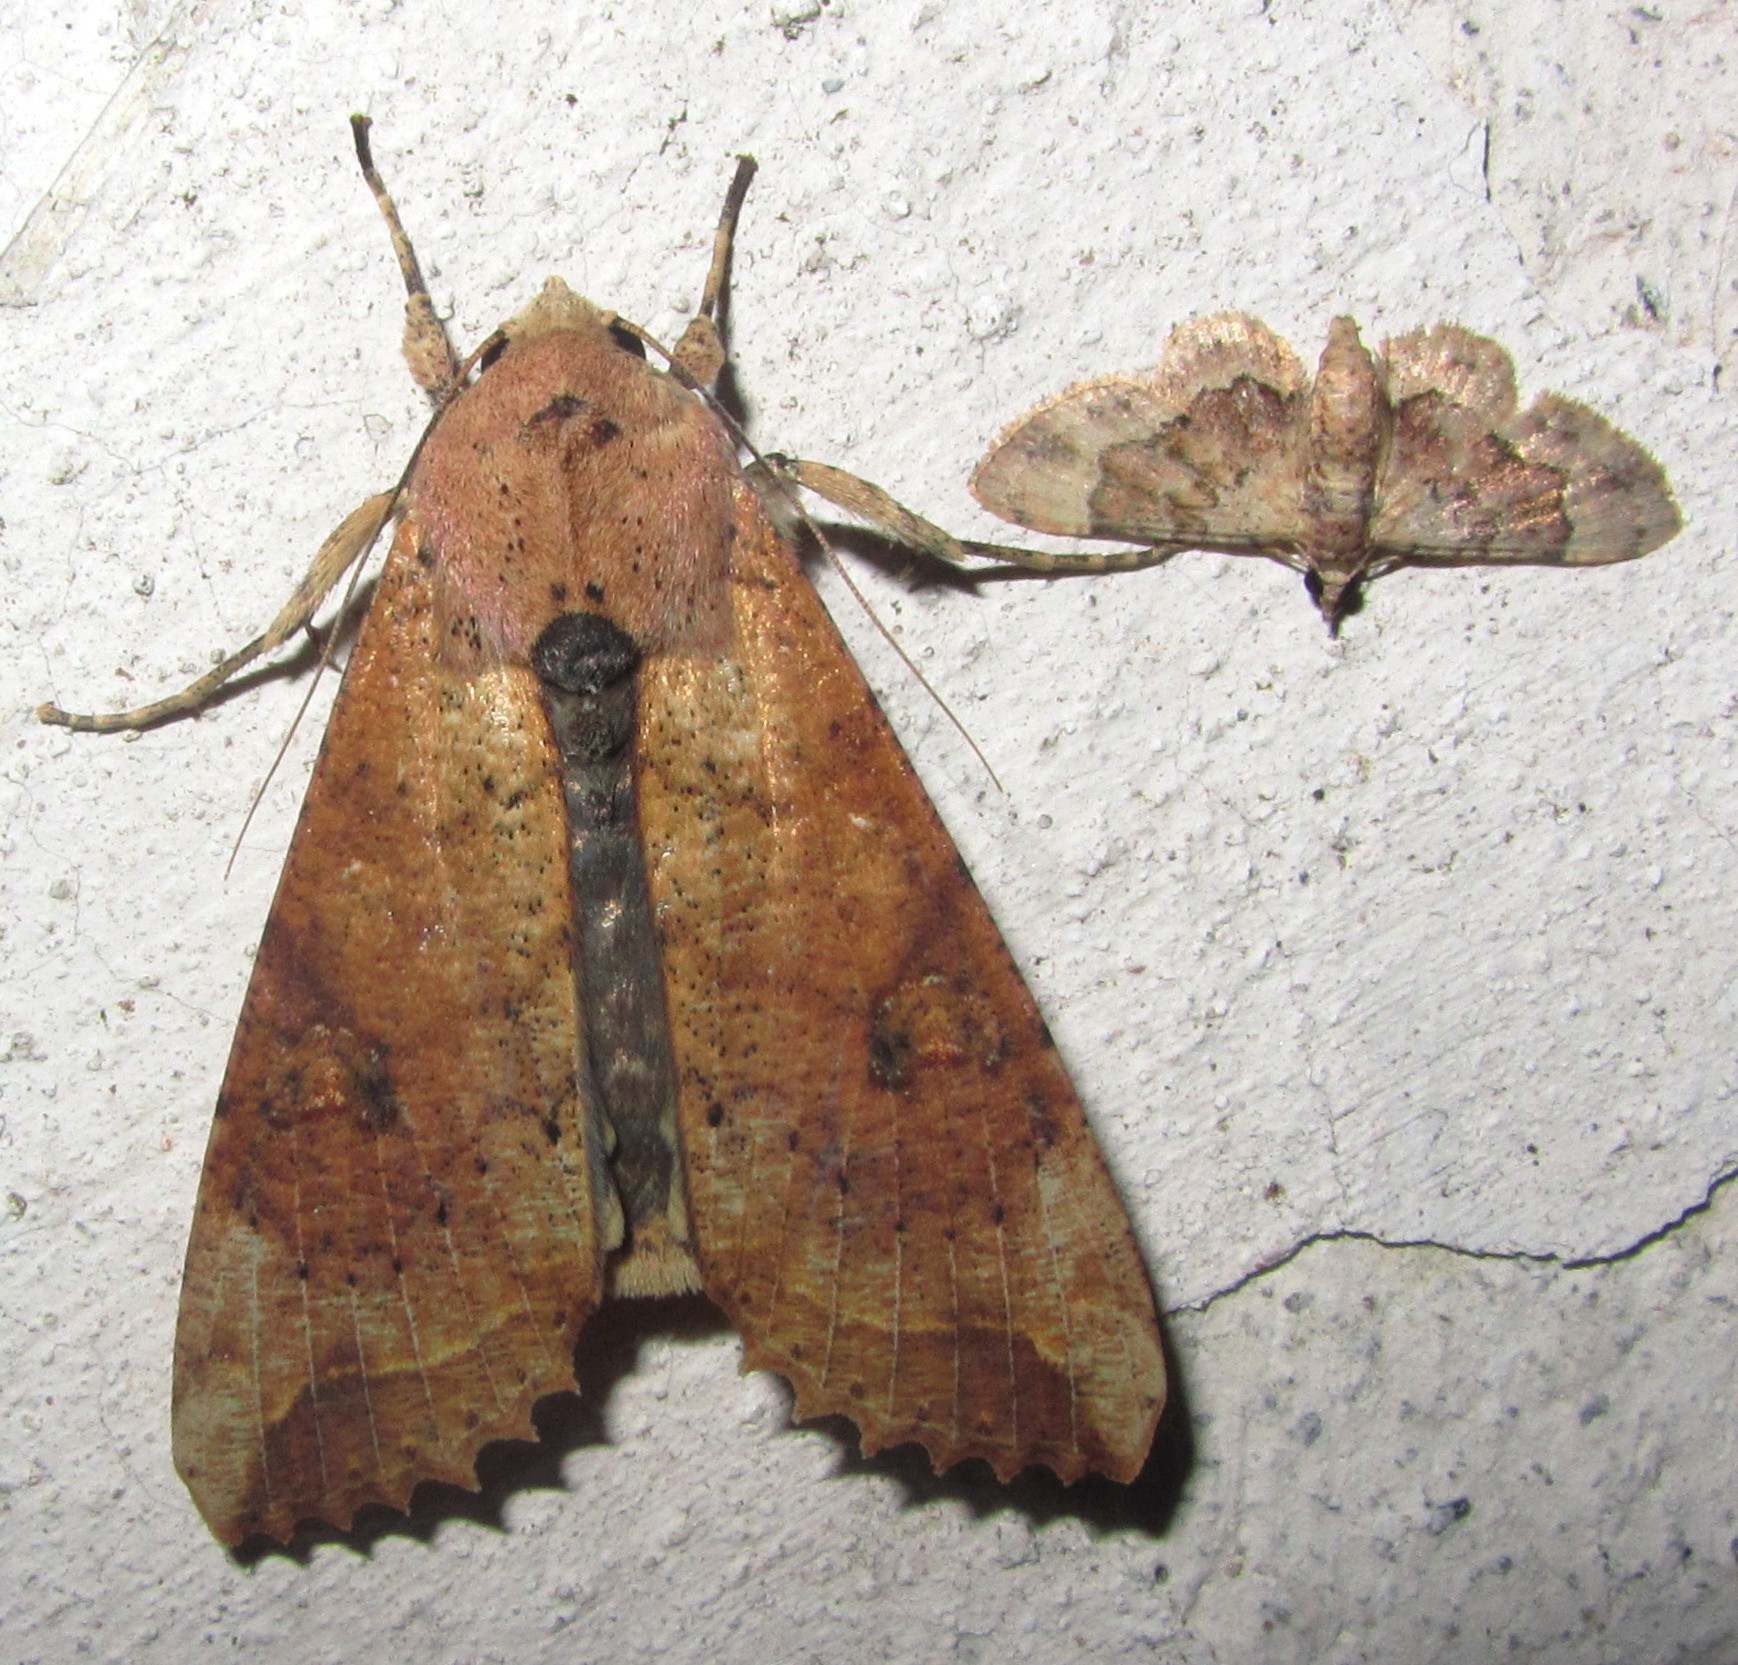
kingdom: Animalia
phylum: Arthropoda
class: Insecta
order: Lepidoptera
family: Noctuidae
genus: Tiracola
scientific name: Tiracola plagiata
